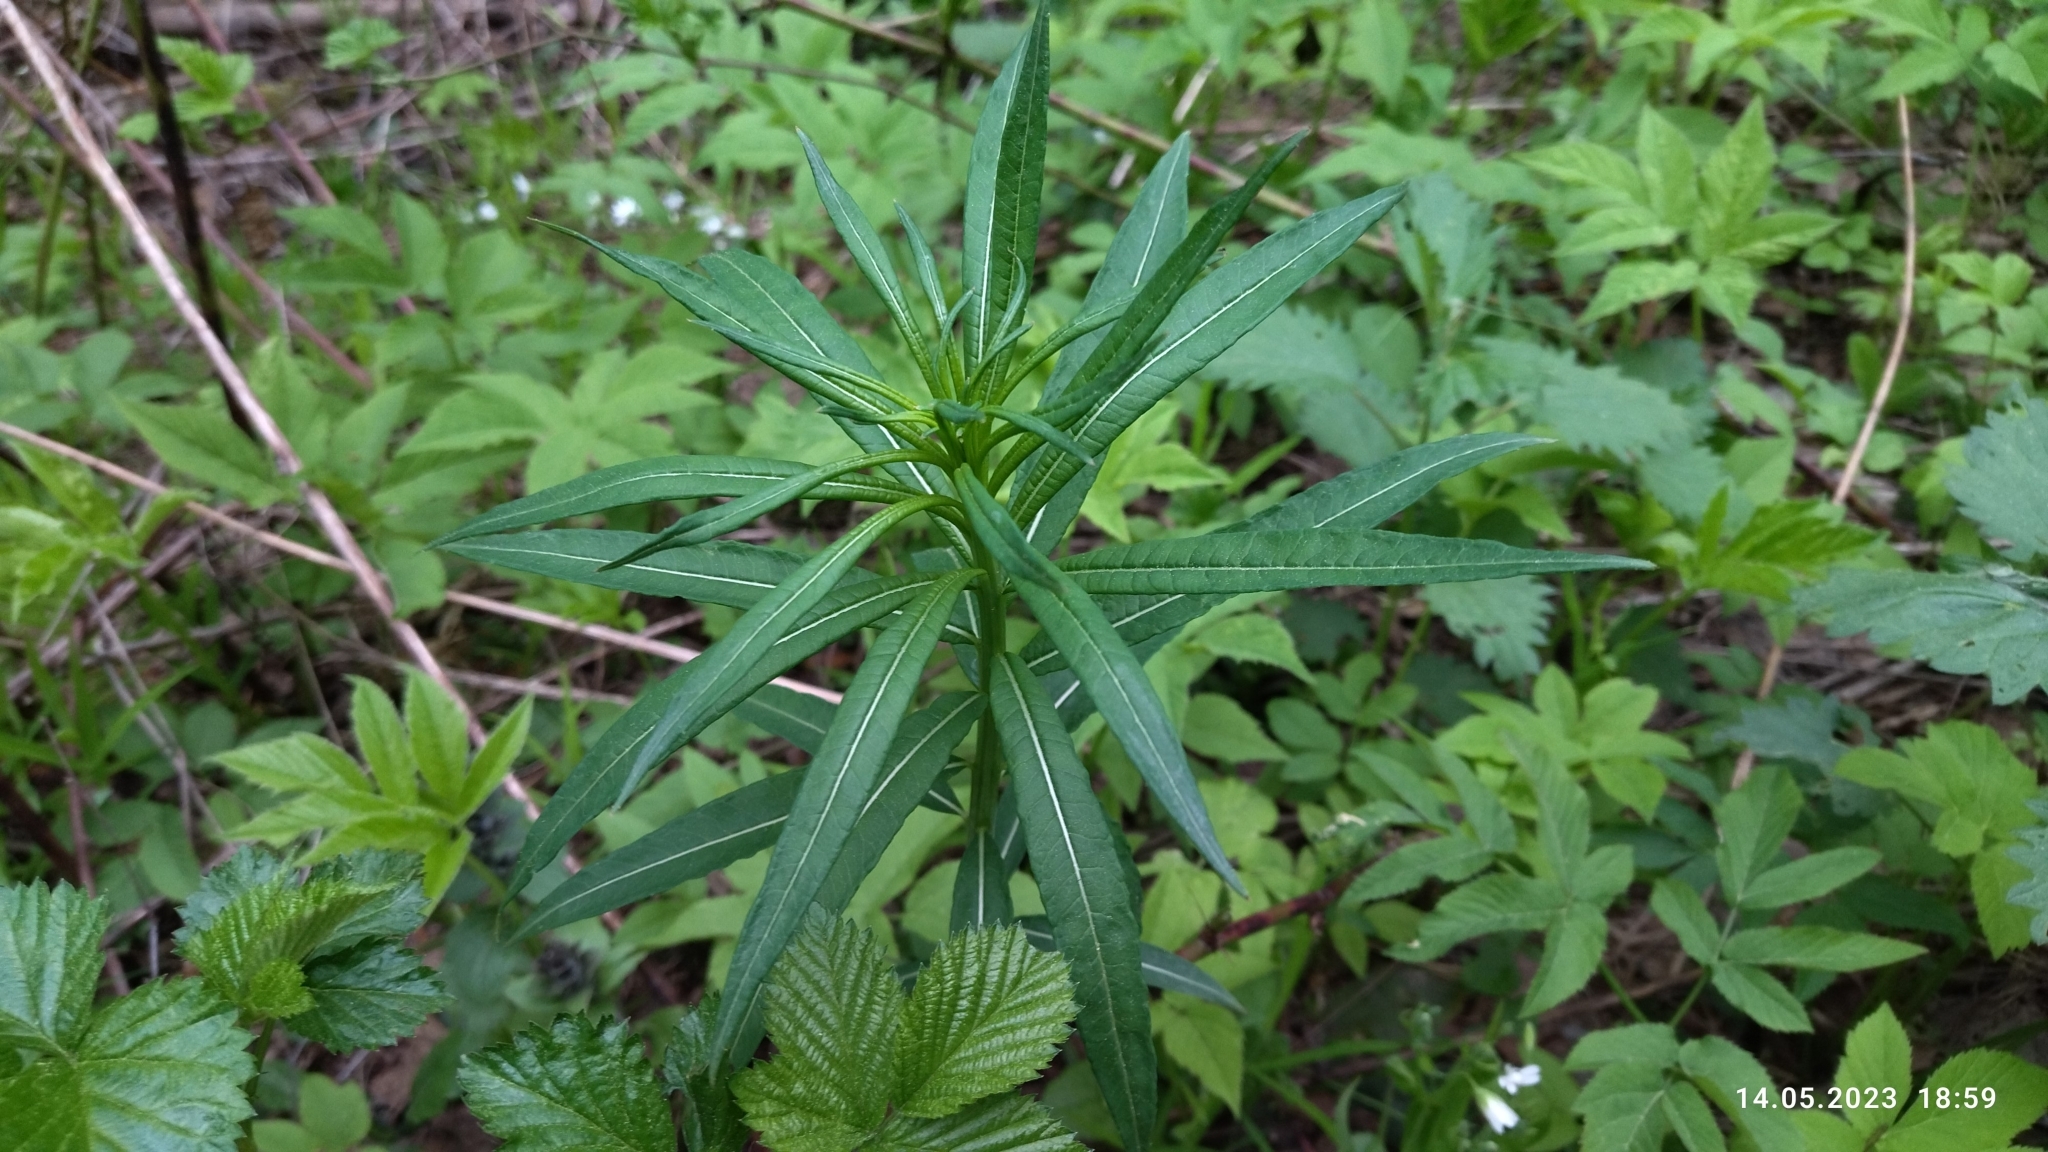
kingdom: Plantae
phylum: Tracheophyta
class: Magnoliopsida
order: Myrtales
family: Onagraceae
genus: Chamaenerion
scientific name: Chamaenerion angustifolium
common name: Fireweed
